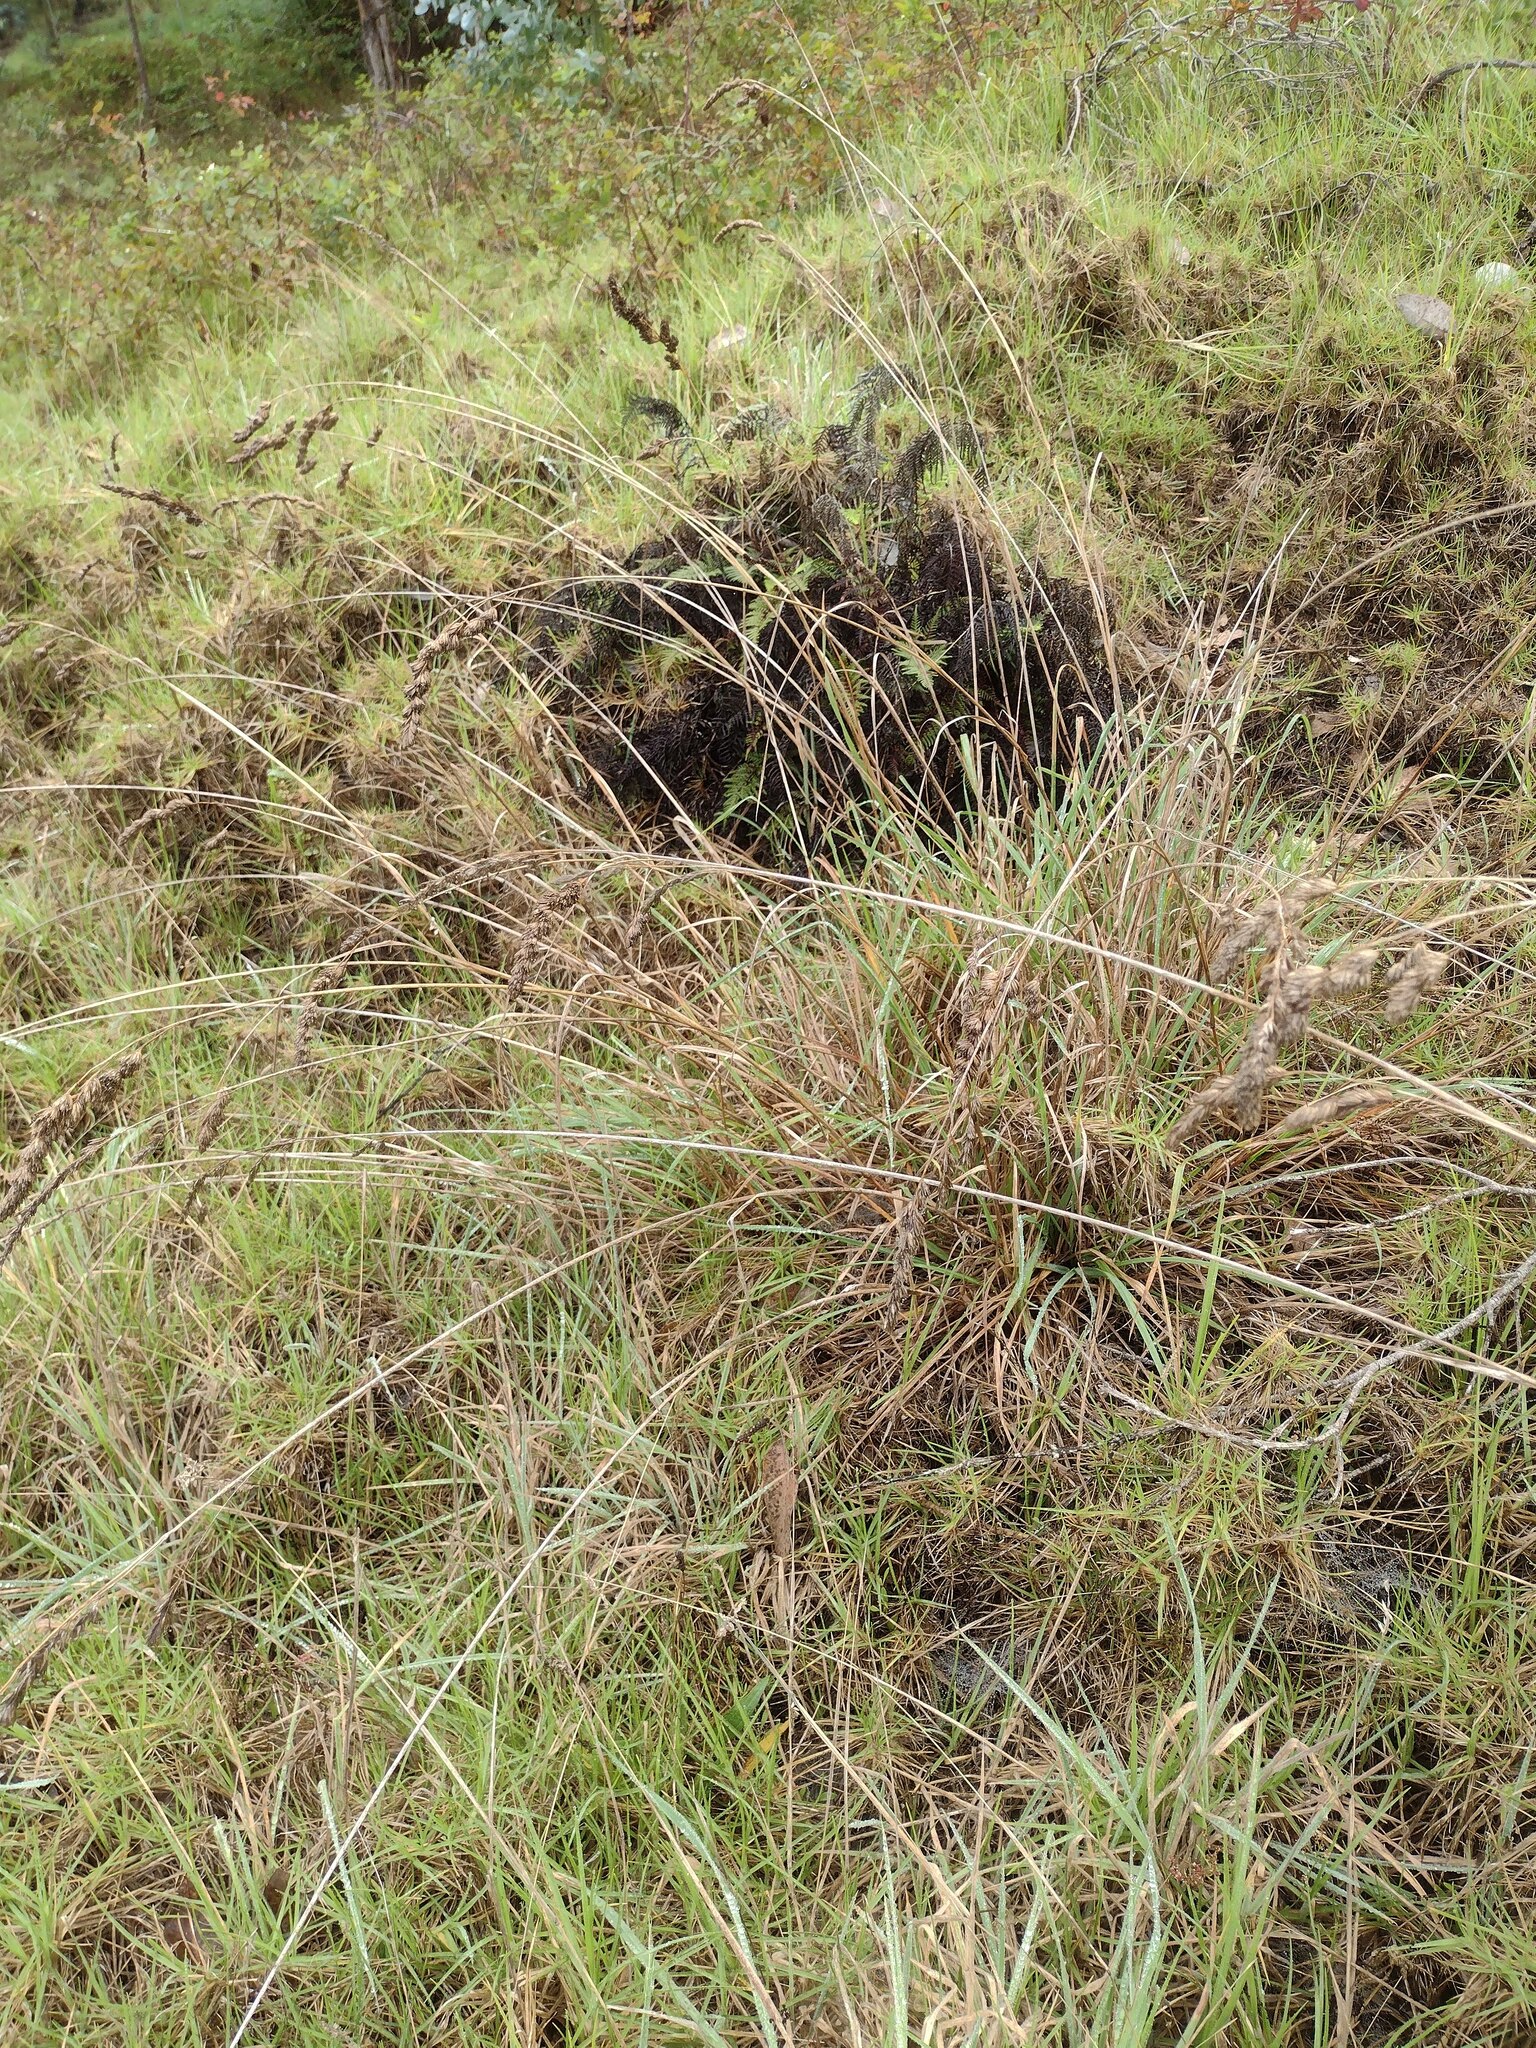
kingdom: Plantae
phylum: Tracheophyta
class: Liliopsida
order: Poales
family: Poaceae
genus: Dactylis
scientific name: Dactylis glomerata
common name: Orchardgrass
